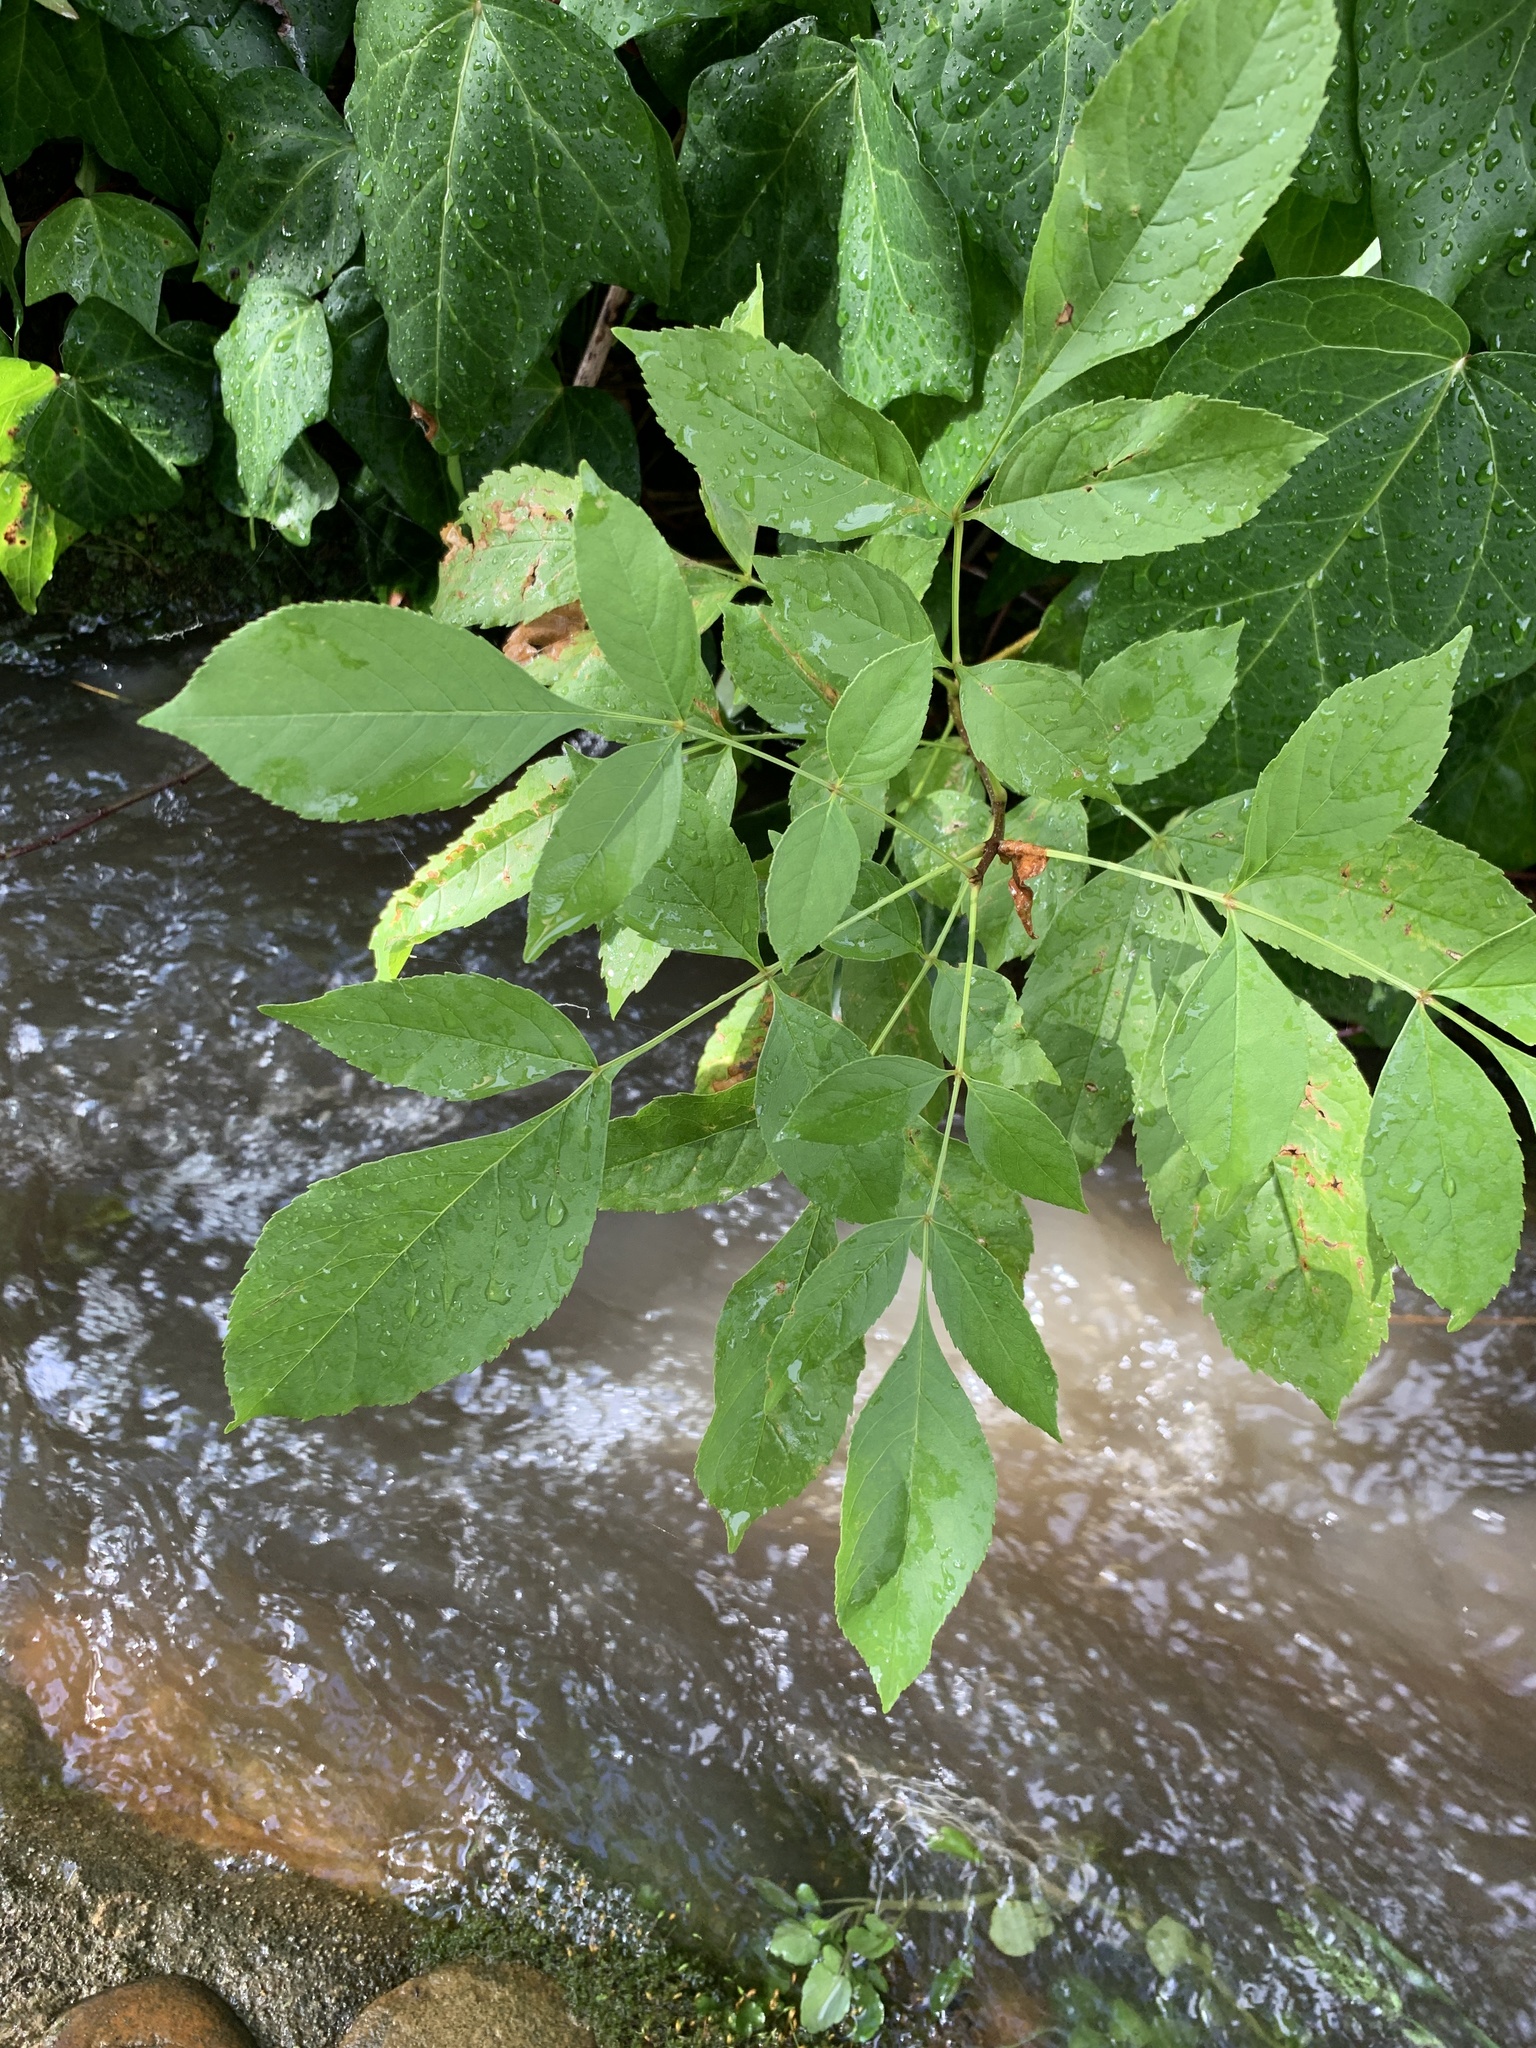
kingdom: Plantae
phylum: Tracheophyta
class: Magnoliopsida
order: Lamiales
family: Oleaceae
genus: Fraxinus
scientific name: Fraxinus pennsylvanica
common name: Green ash
